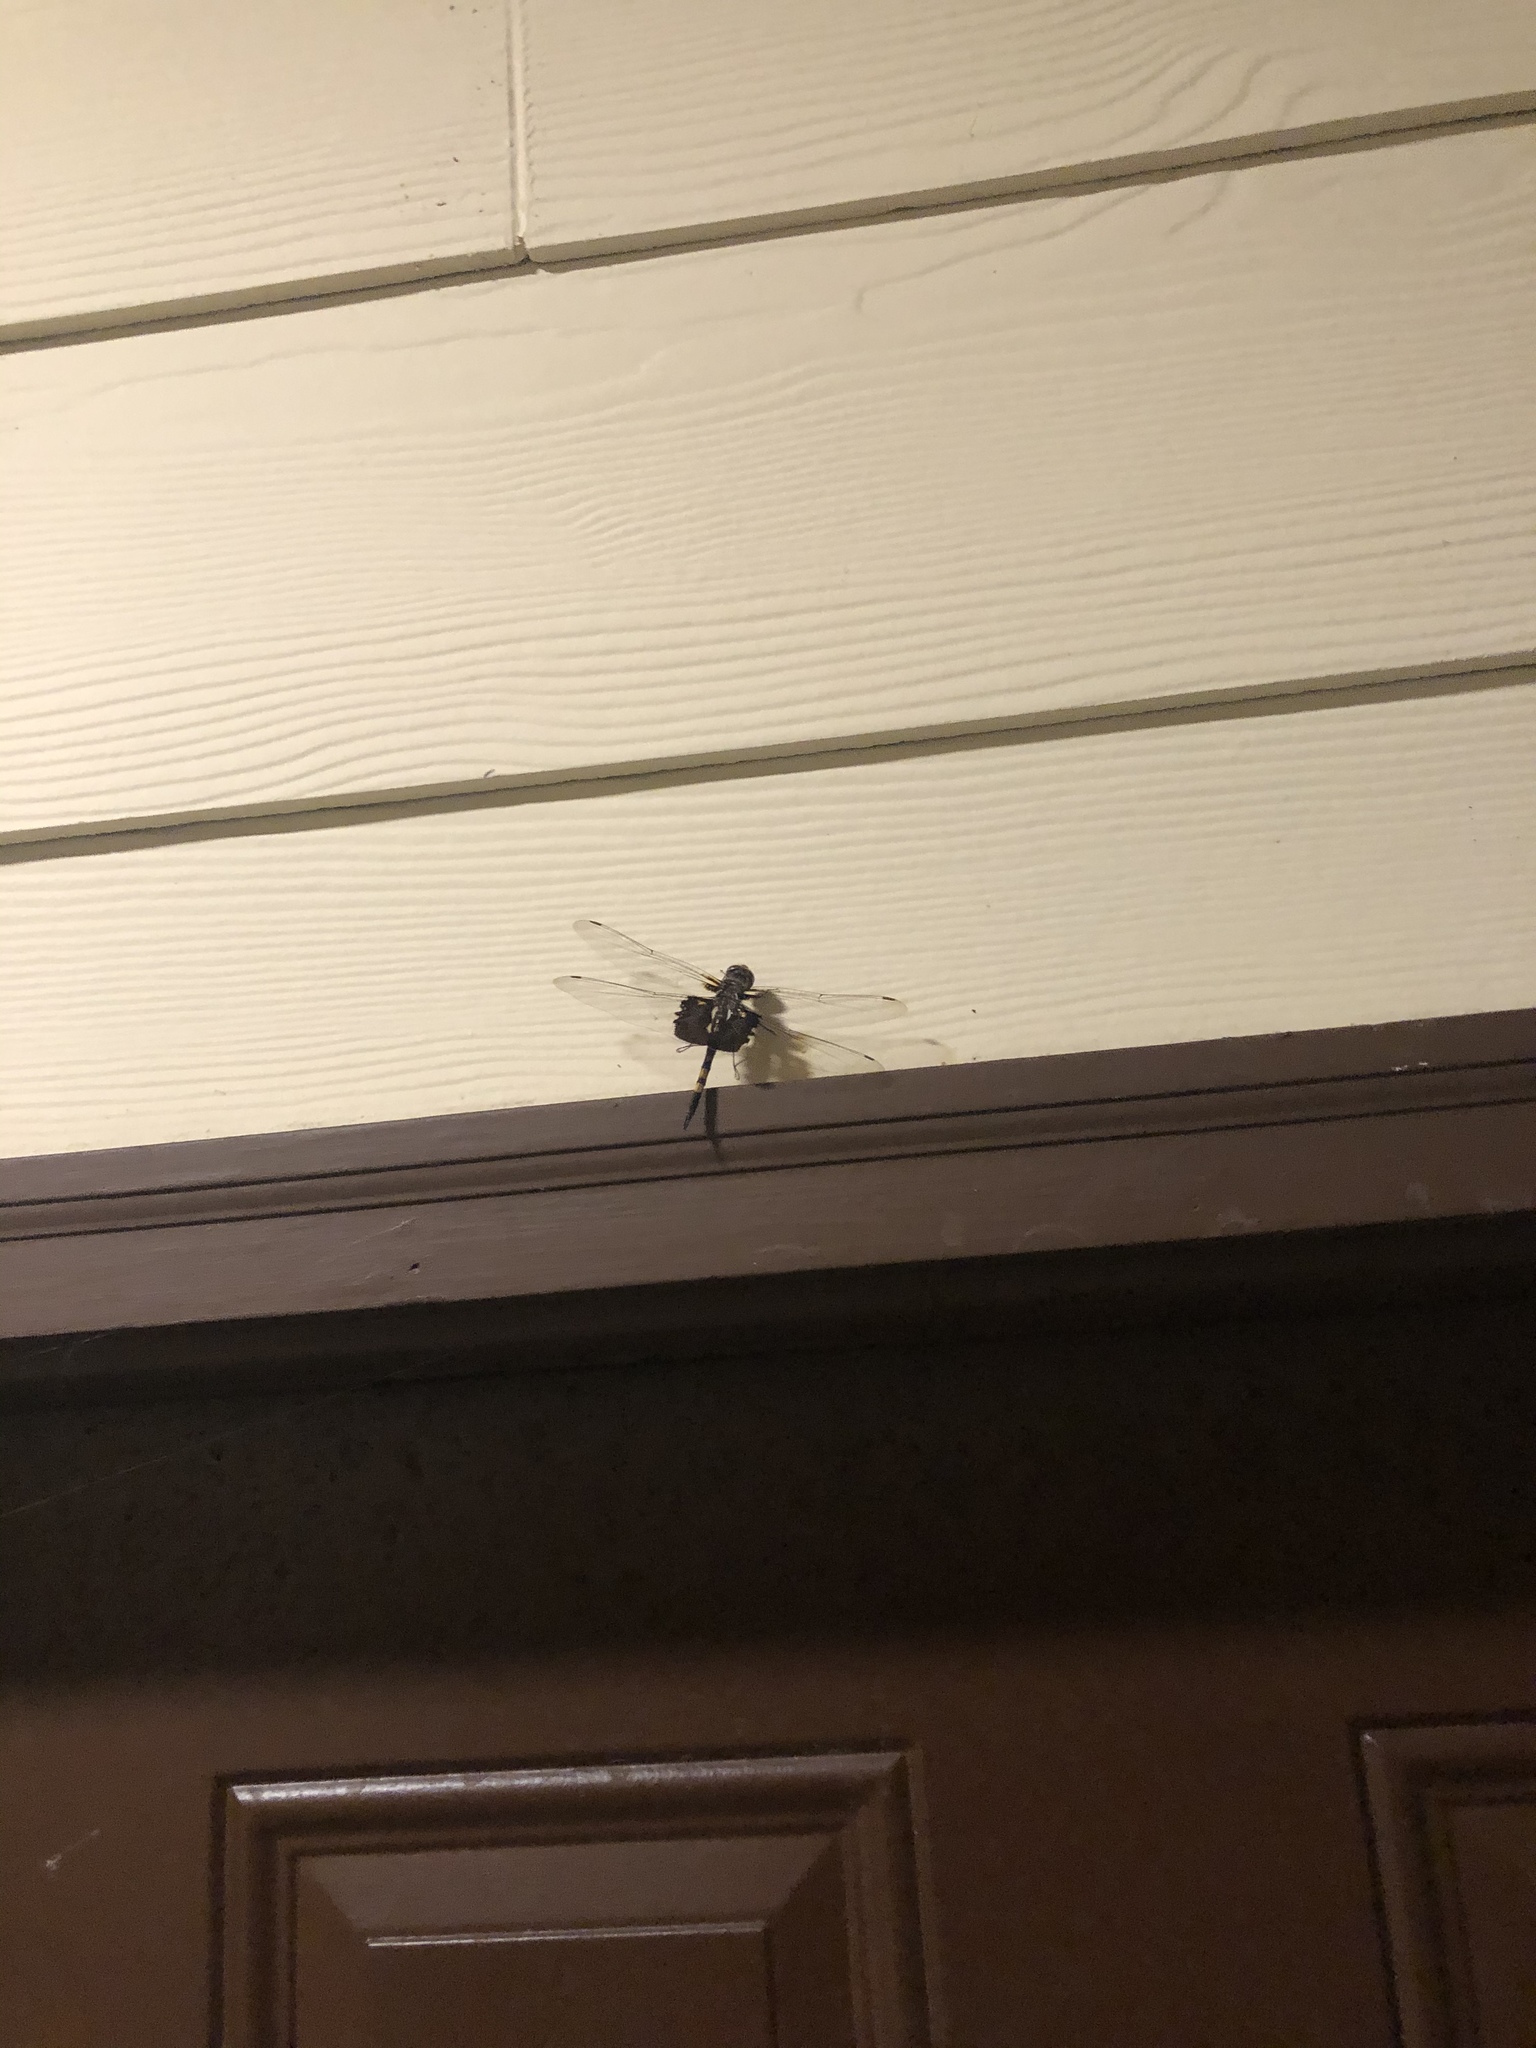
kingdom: Animalia
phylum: Arthropoda
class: Insecta
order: Odonata
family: Libellulidae
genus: Tramea
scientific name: Tramea lacerata
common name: Black saddlebags
